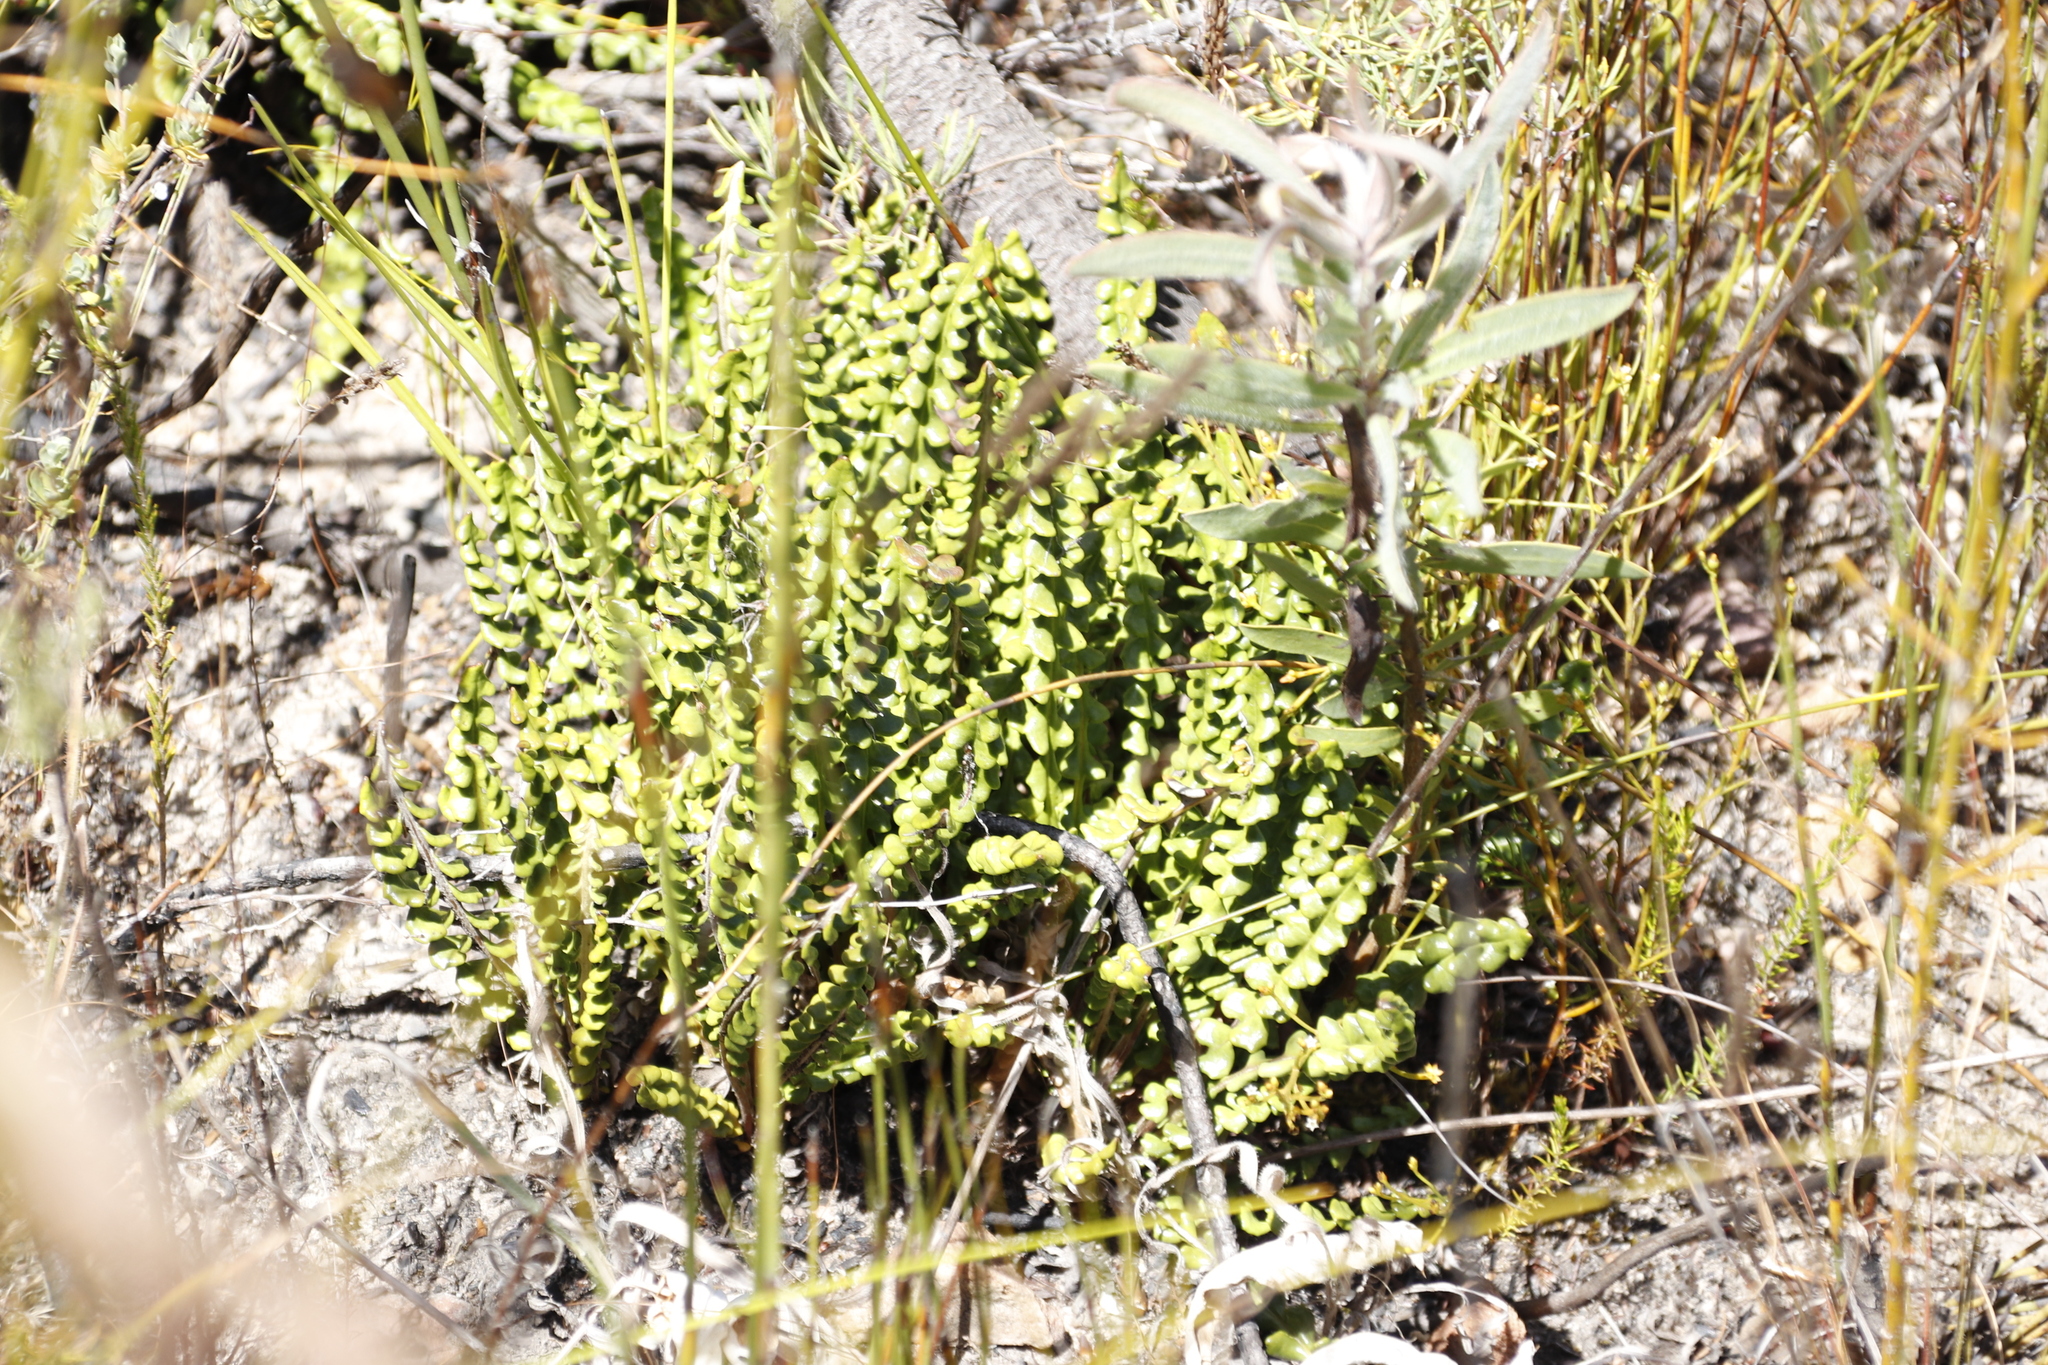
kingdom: Plantae
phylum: Tracheophyta
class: Magnoliopsida
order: Asterales
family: Asteraceae
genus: Gerbera
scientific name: Gerbera linnaei
